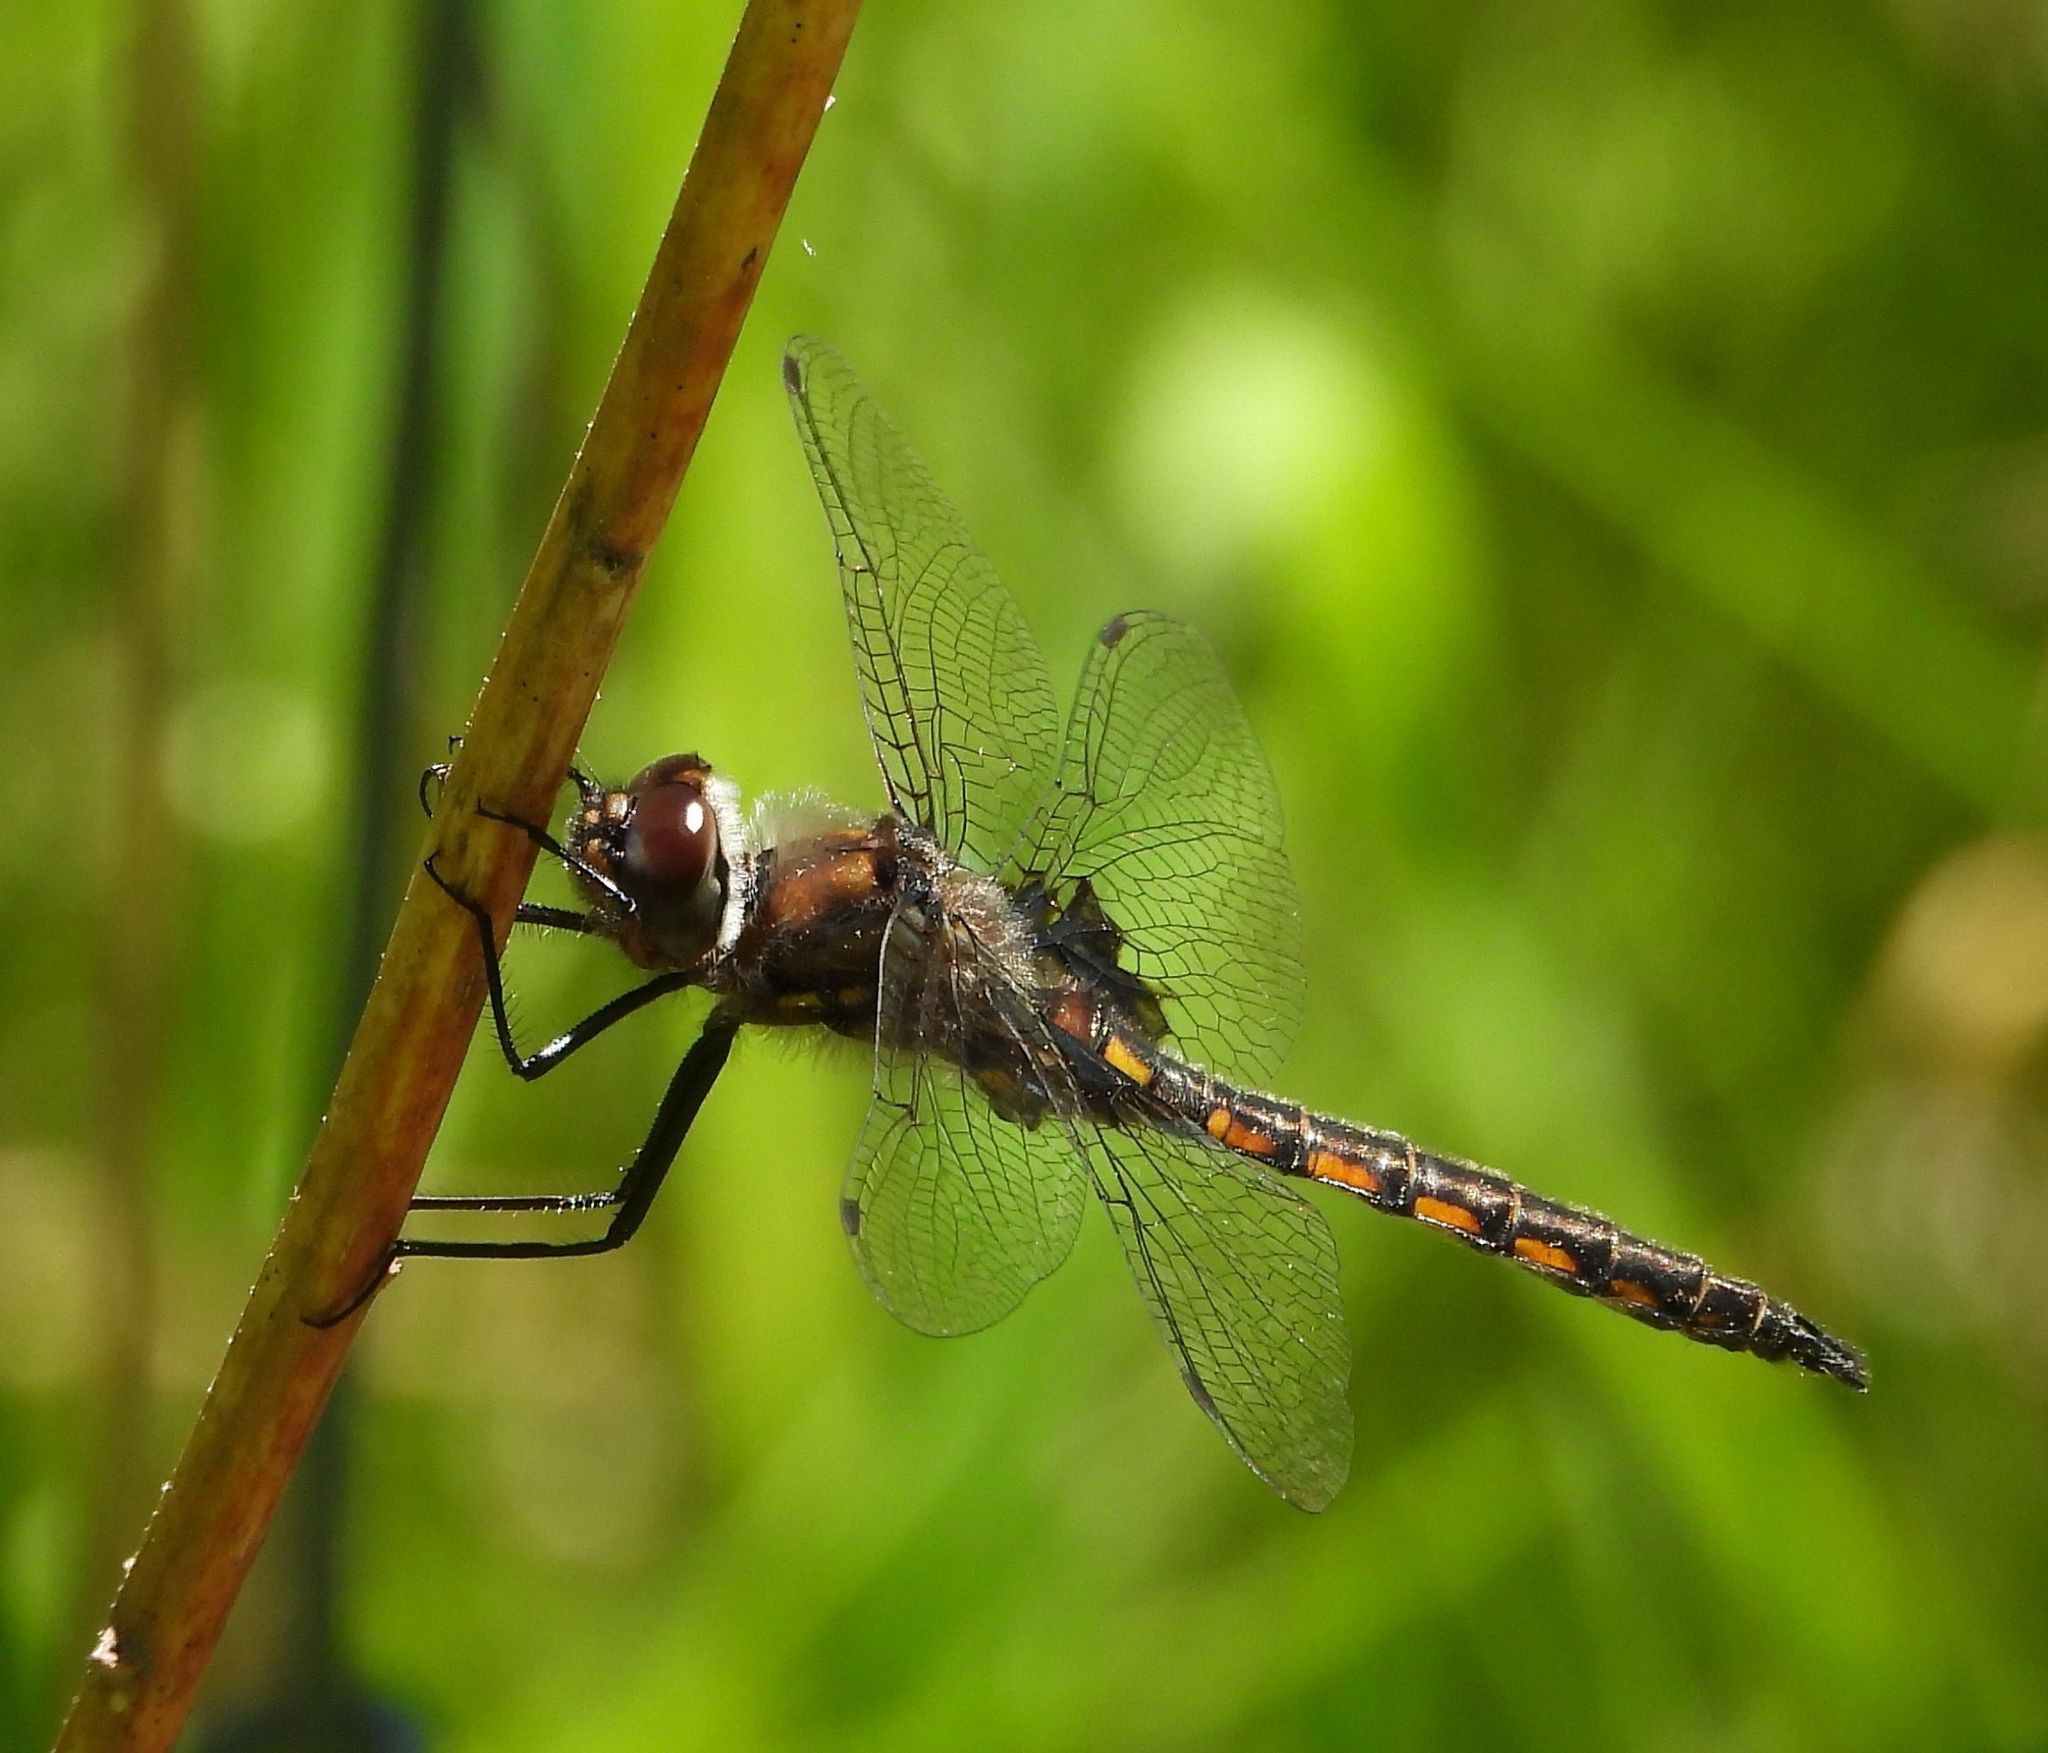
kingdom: Animalia
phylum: Arthropoda
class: Insecta
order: Odonata
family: Corduliidae
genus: Epitheca
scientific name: Epitheca cynosura
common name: Common baskettail
